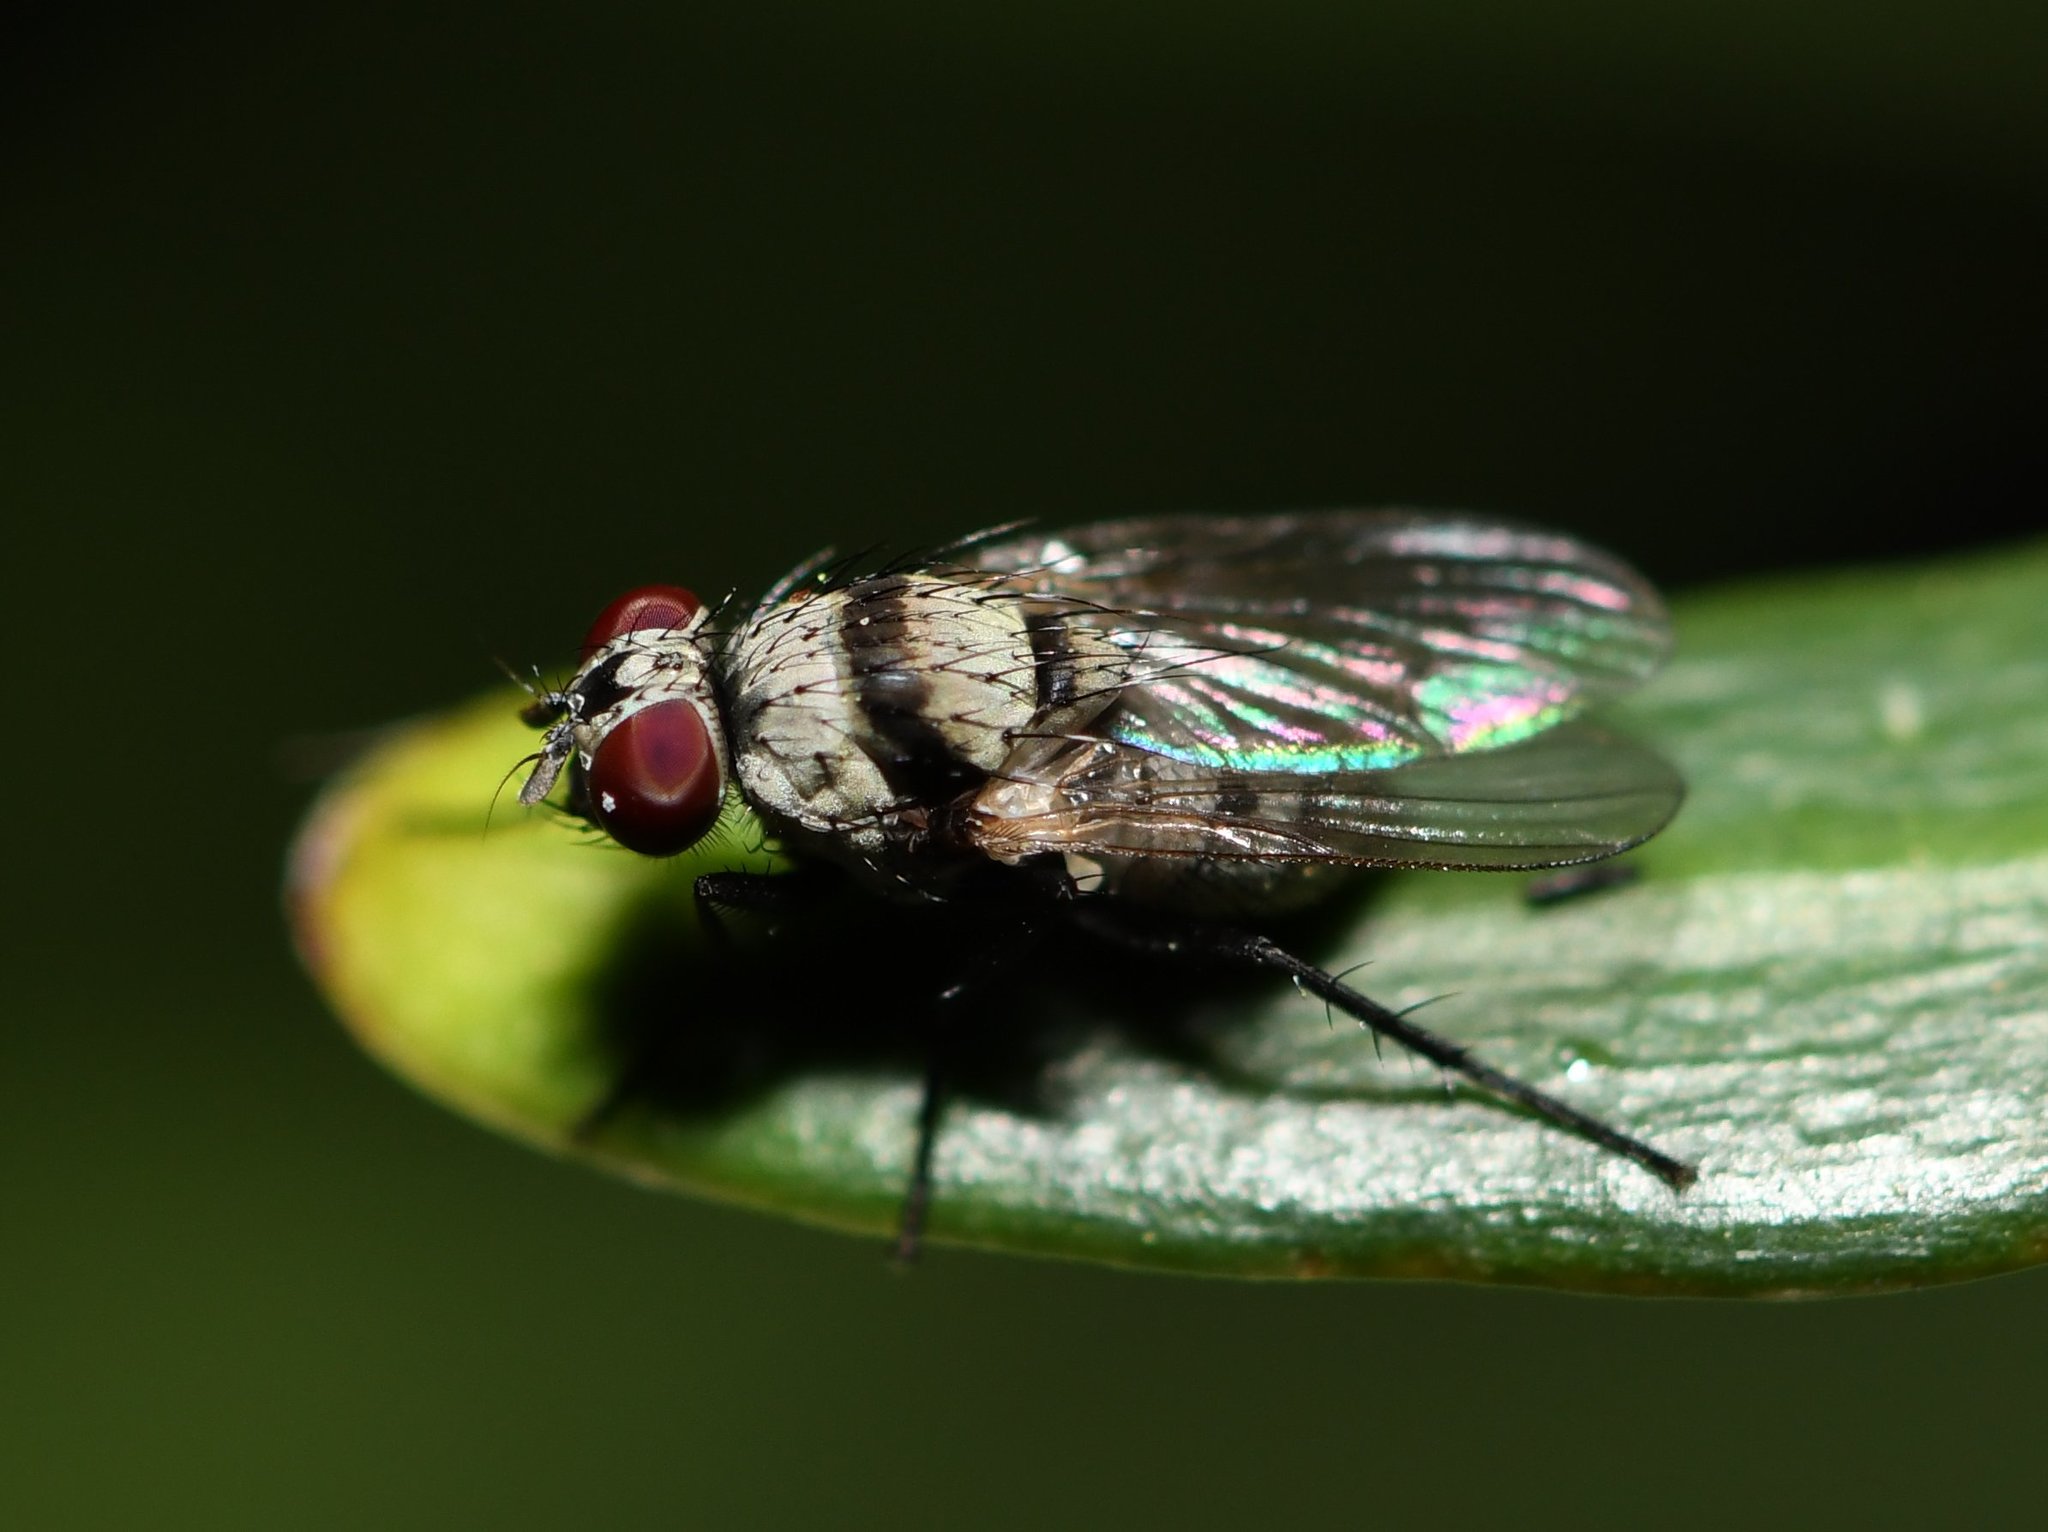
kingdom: Animalia
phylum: Arthropoda
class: Insecta
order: Diptera
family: Anthomyiidae
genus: Anthomyia
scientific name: Anthomyia illocata
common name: Fly
